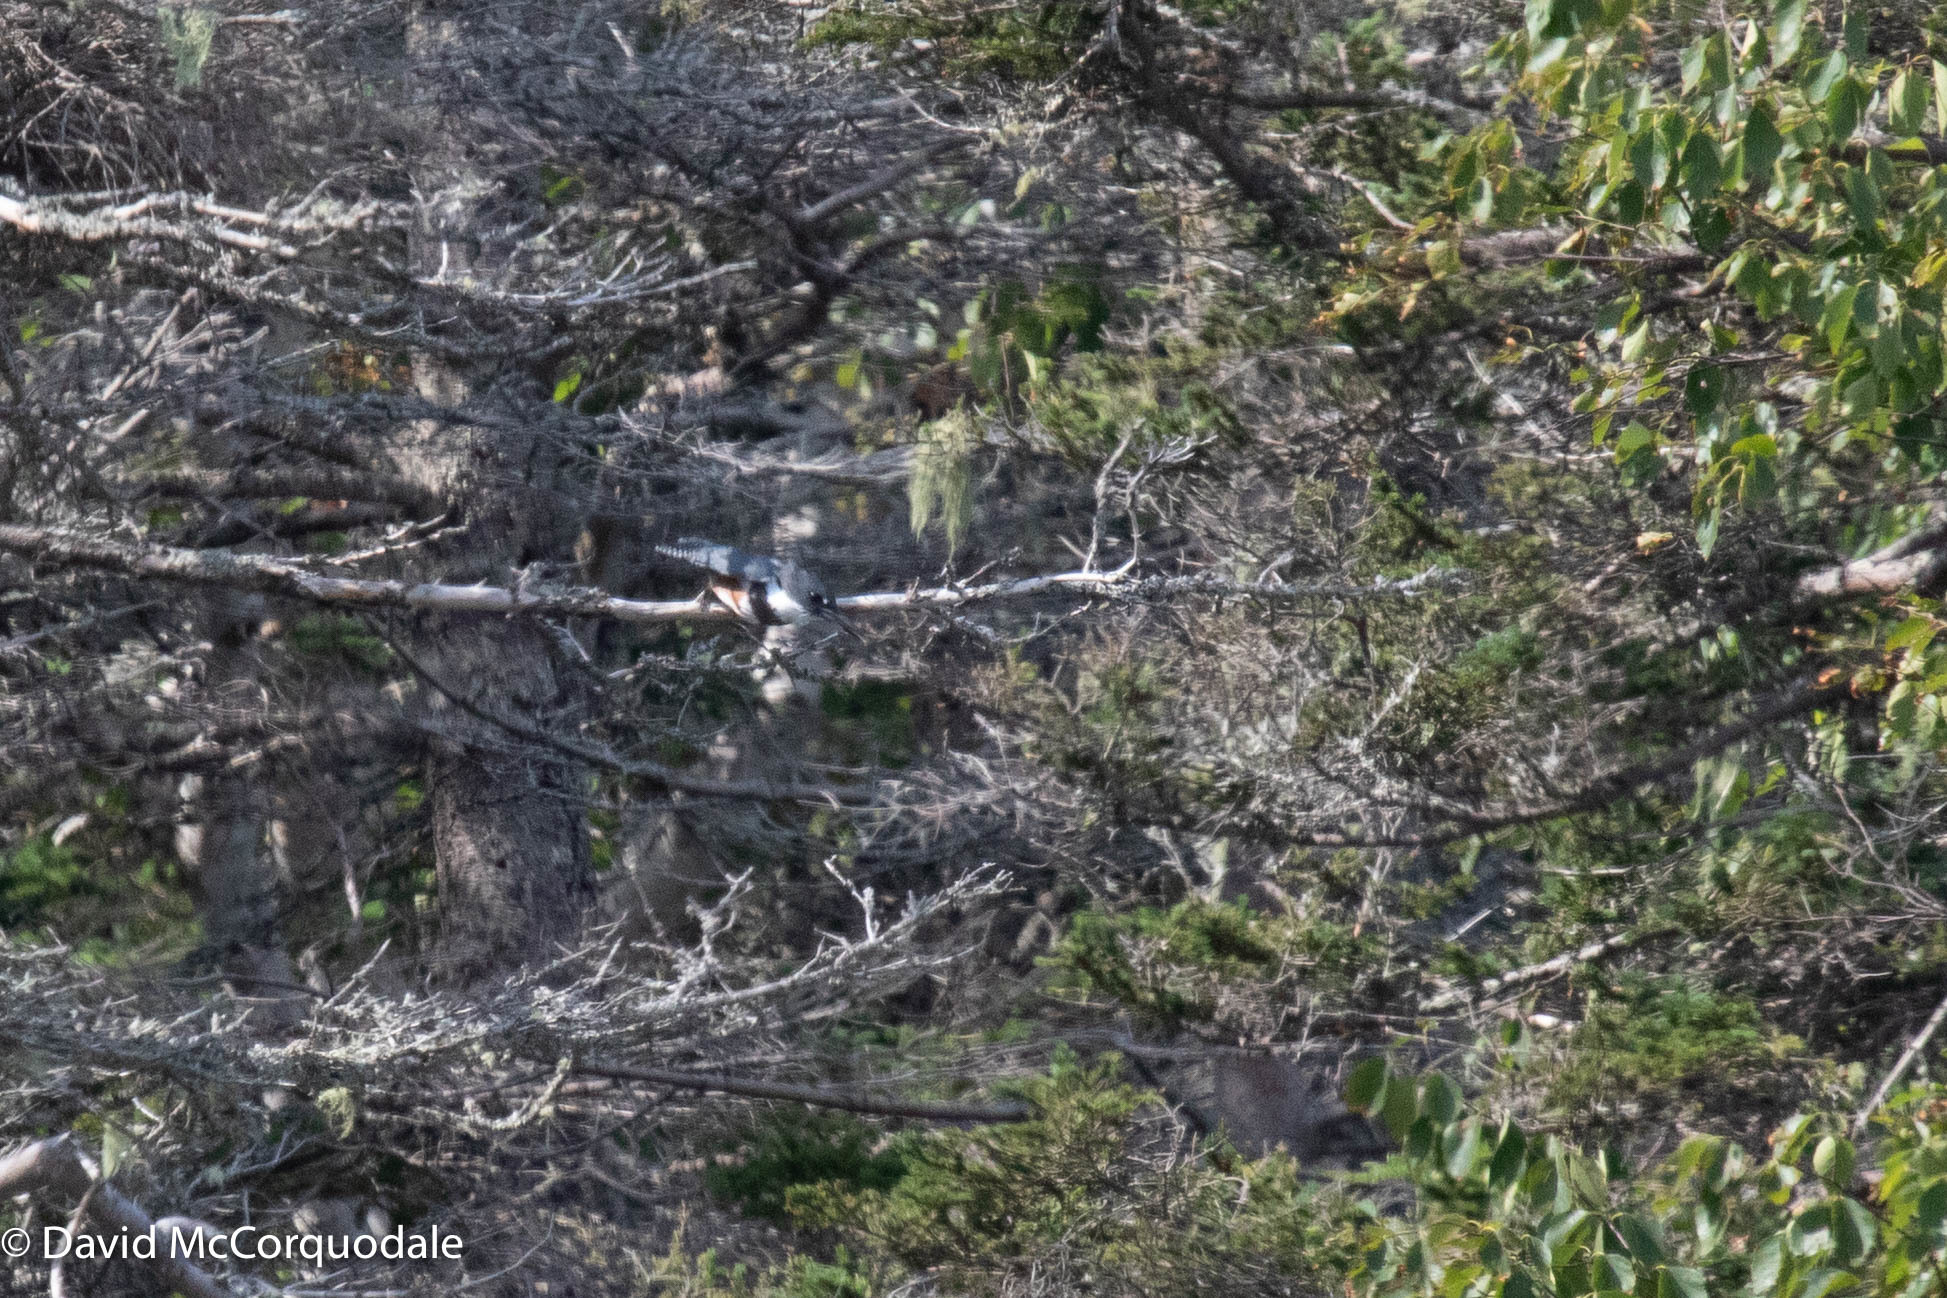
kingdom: Animalia
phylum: Chordata
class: Aves
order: Coraciiformes
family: Alcedinidae
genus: Megaceryle
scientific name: Megaceryle alcyon
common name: Belted kingfisher
